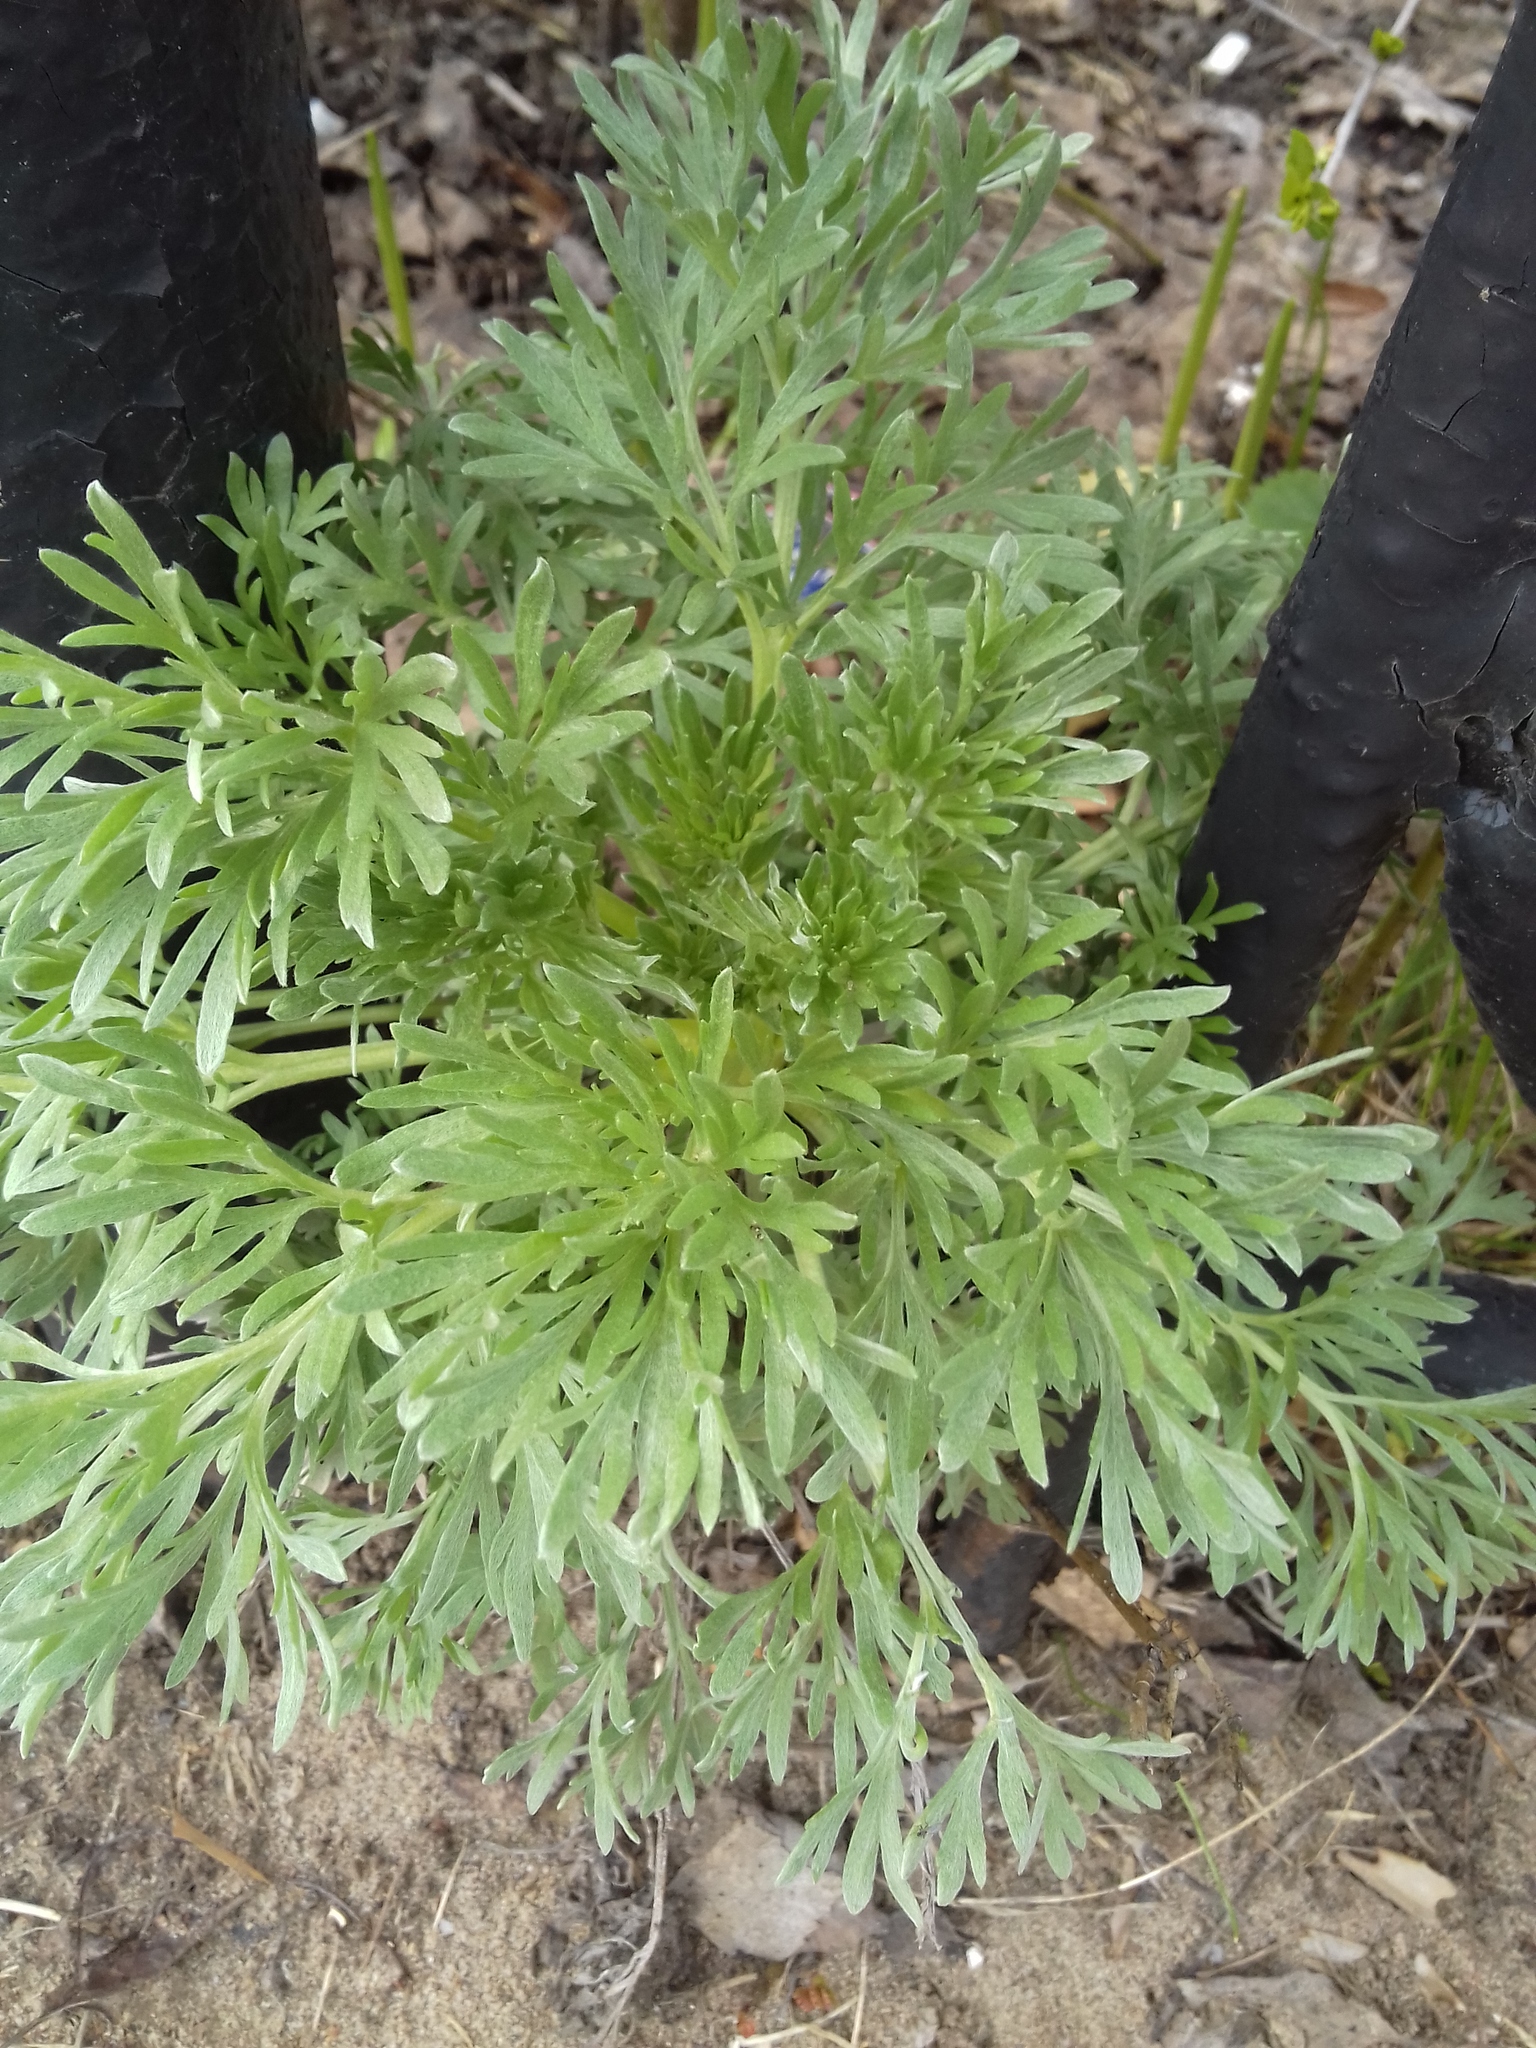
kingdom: Plantae
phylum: Tracheophyta
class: Magnoliopsida
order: Asterales
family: Asteraceae
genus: Artemisia
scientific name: Artemisia absinthium
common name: Wormwood
